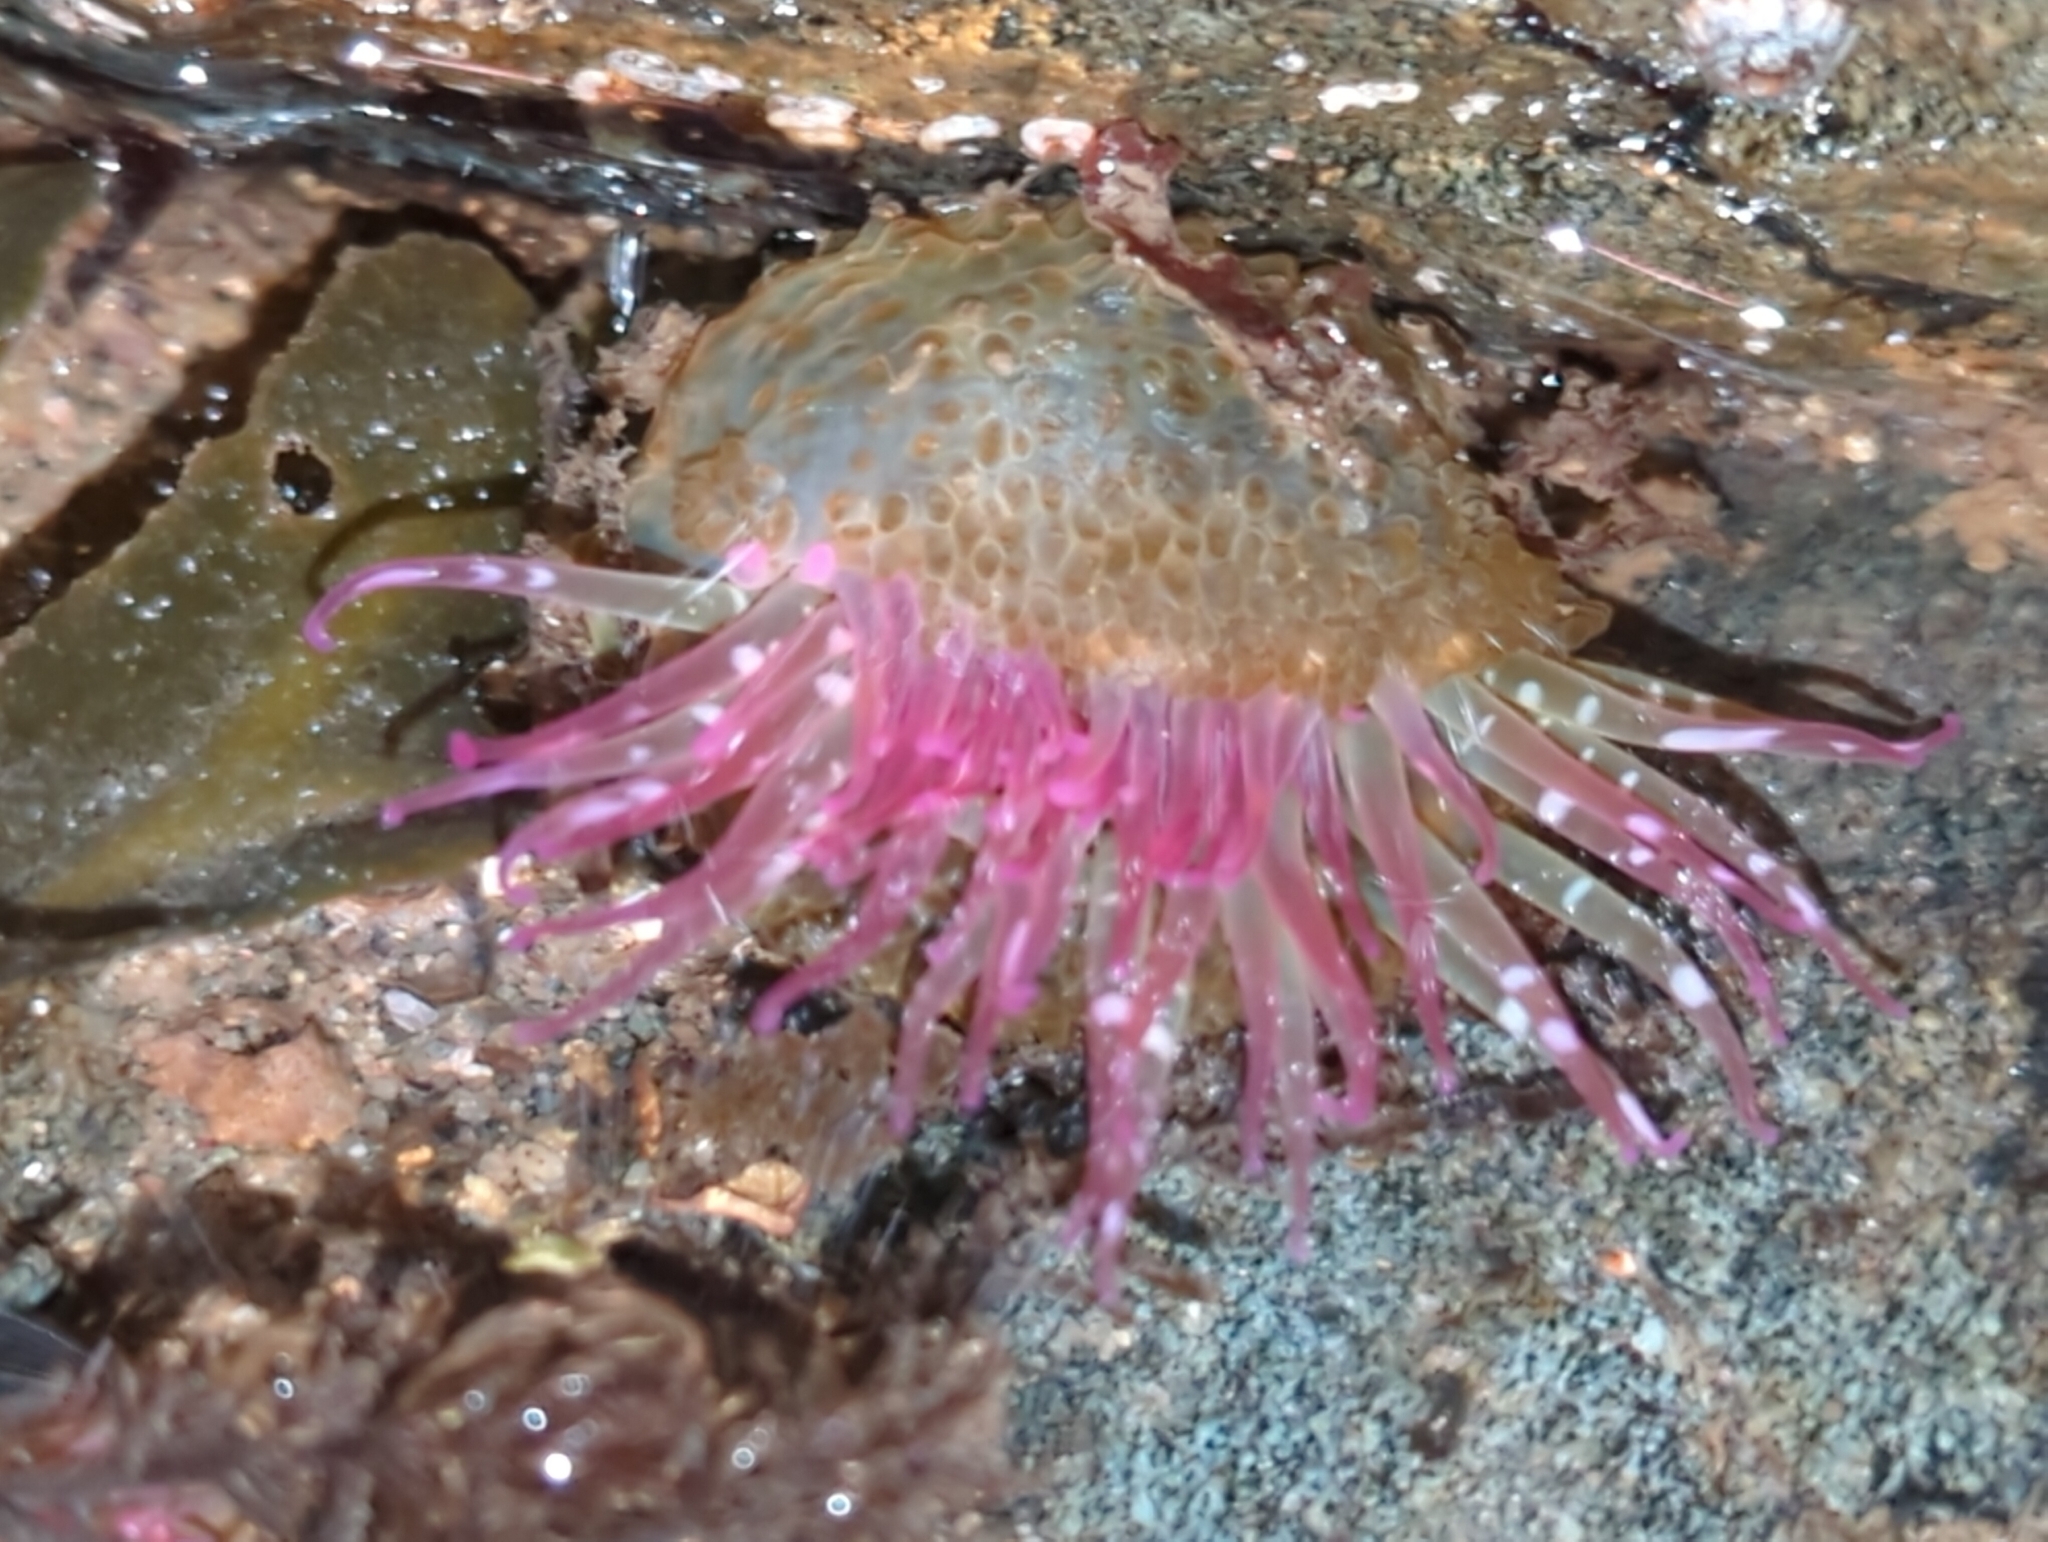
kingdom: Animalia
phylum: Cnidaria
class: Anthozoa
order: Actiniaria
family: Actiniidae
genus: Anthopleura
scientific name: Anthopleura elegantissima
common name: Clonal anemone
